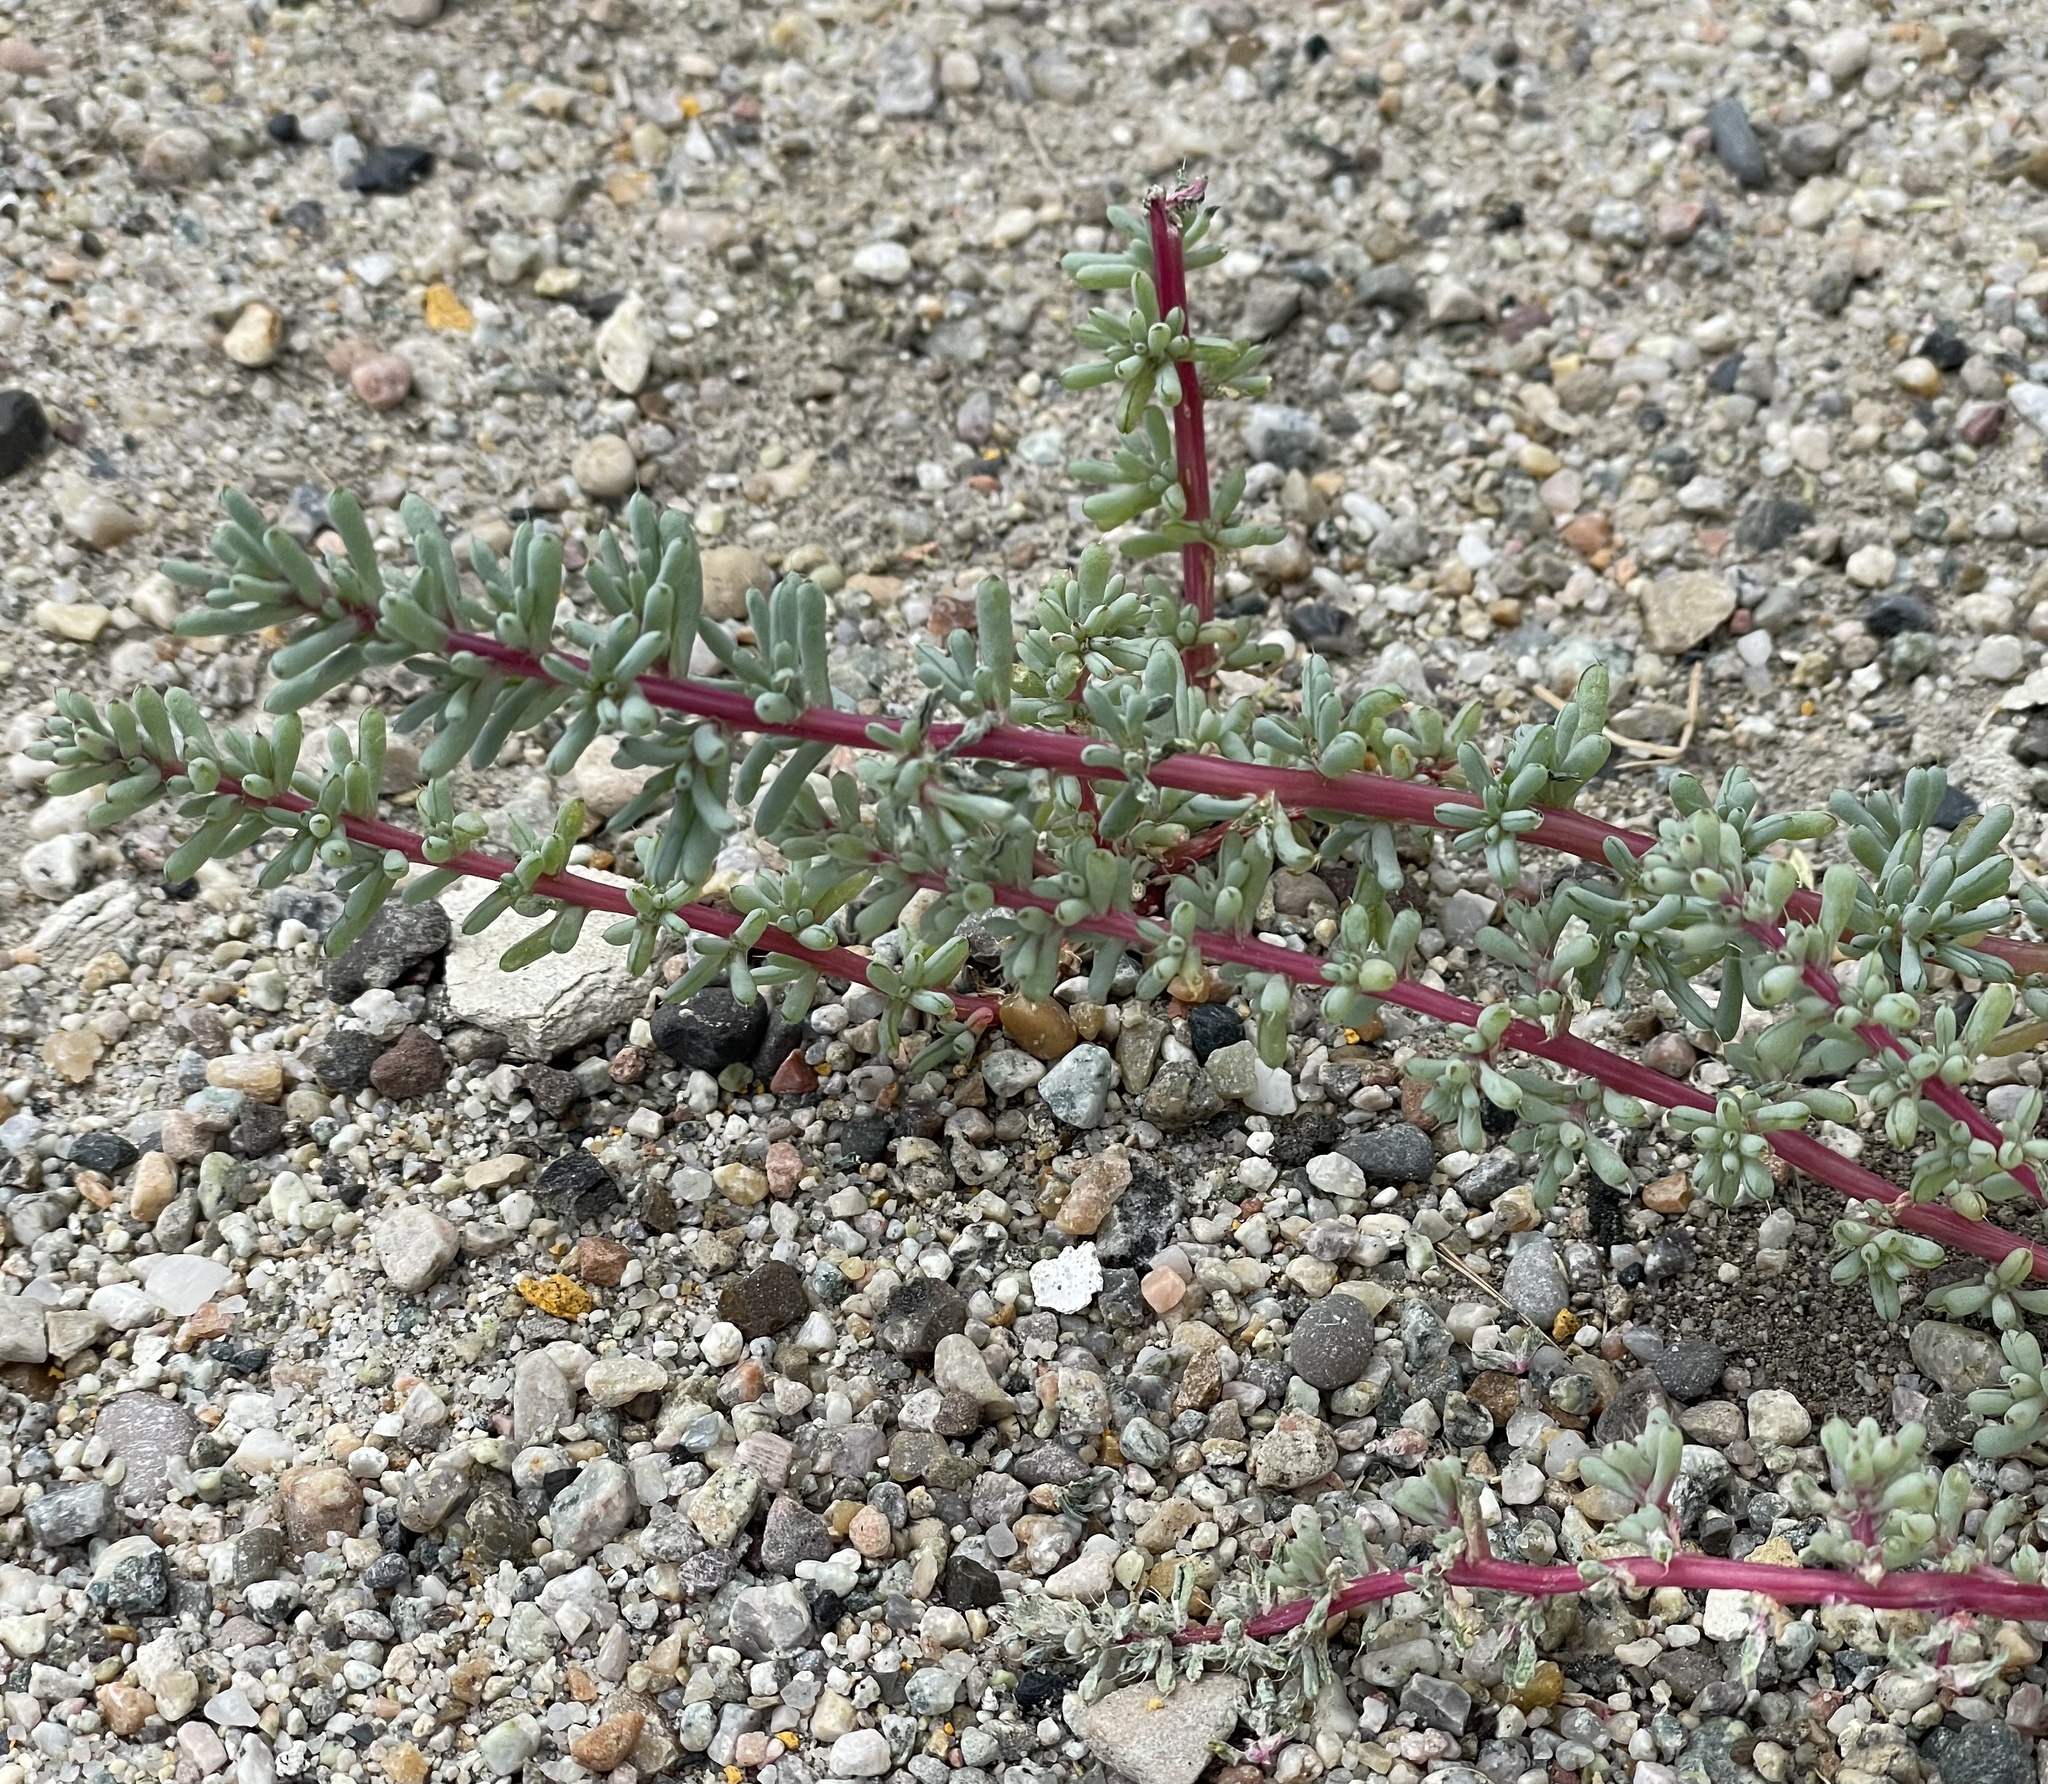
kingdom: Plantae
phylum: Tracheophyta
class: Magnoliopsida
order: Caryophyllales
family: Amaranthaceae
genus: Halogeton
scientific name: Halogeton glomeratus
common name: Saltlover
